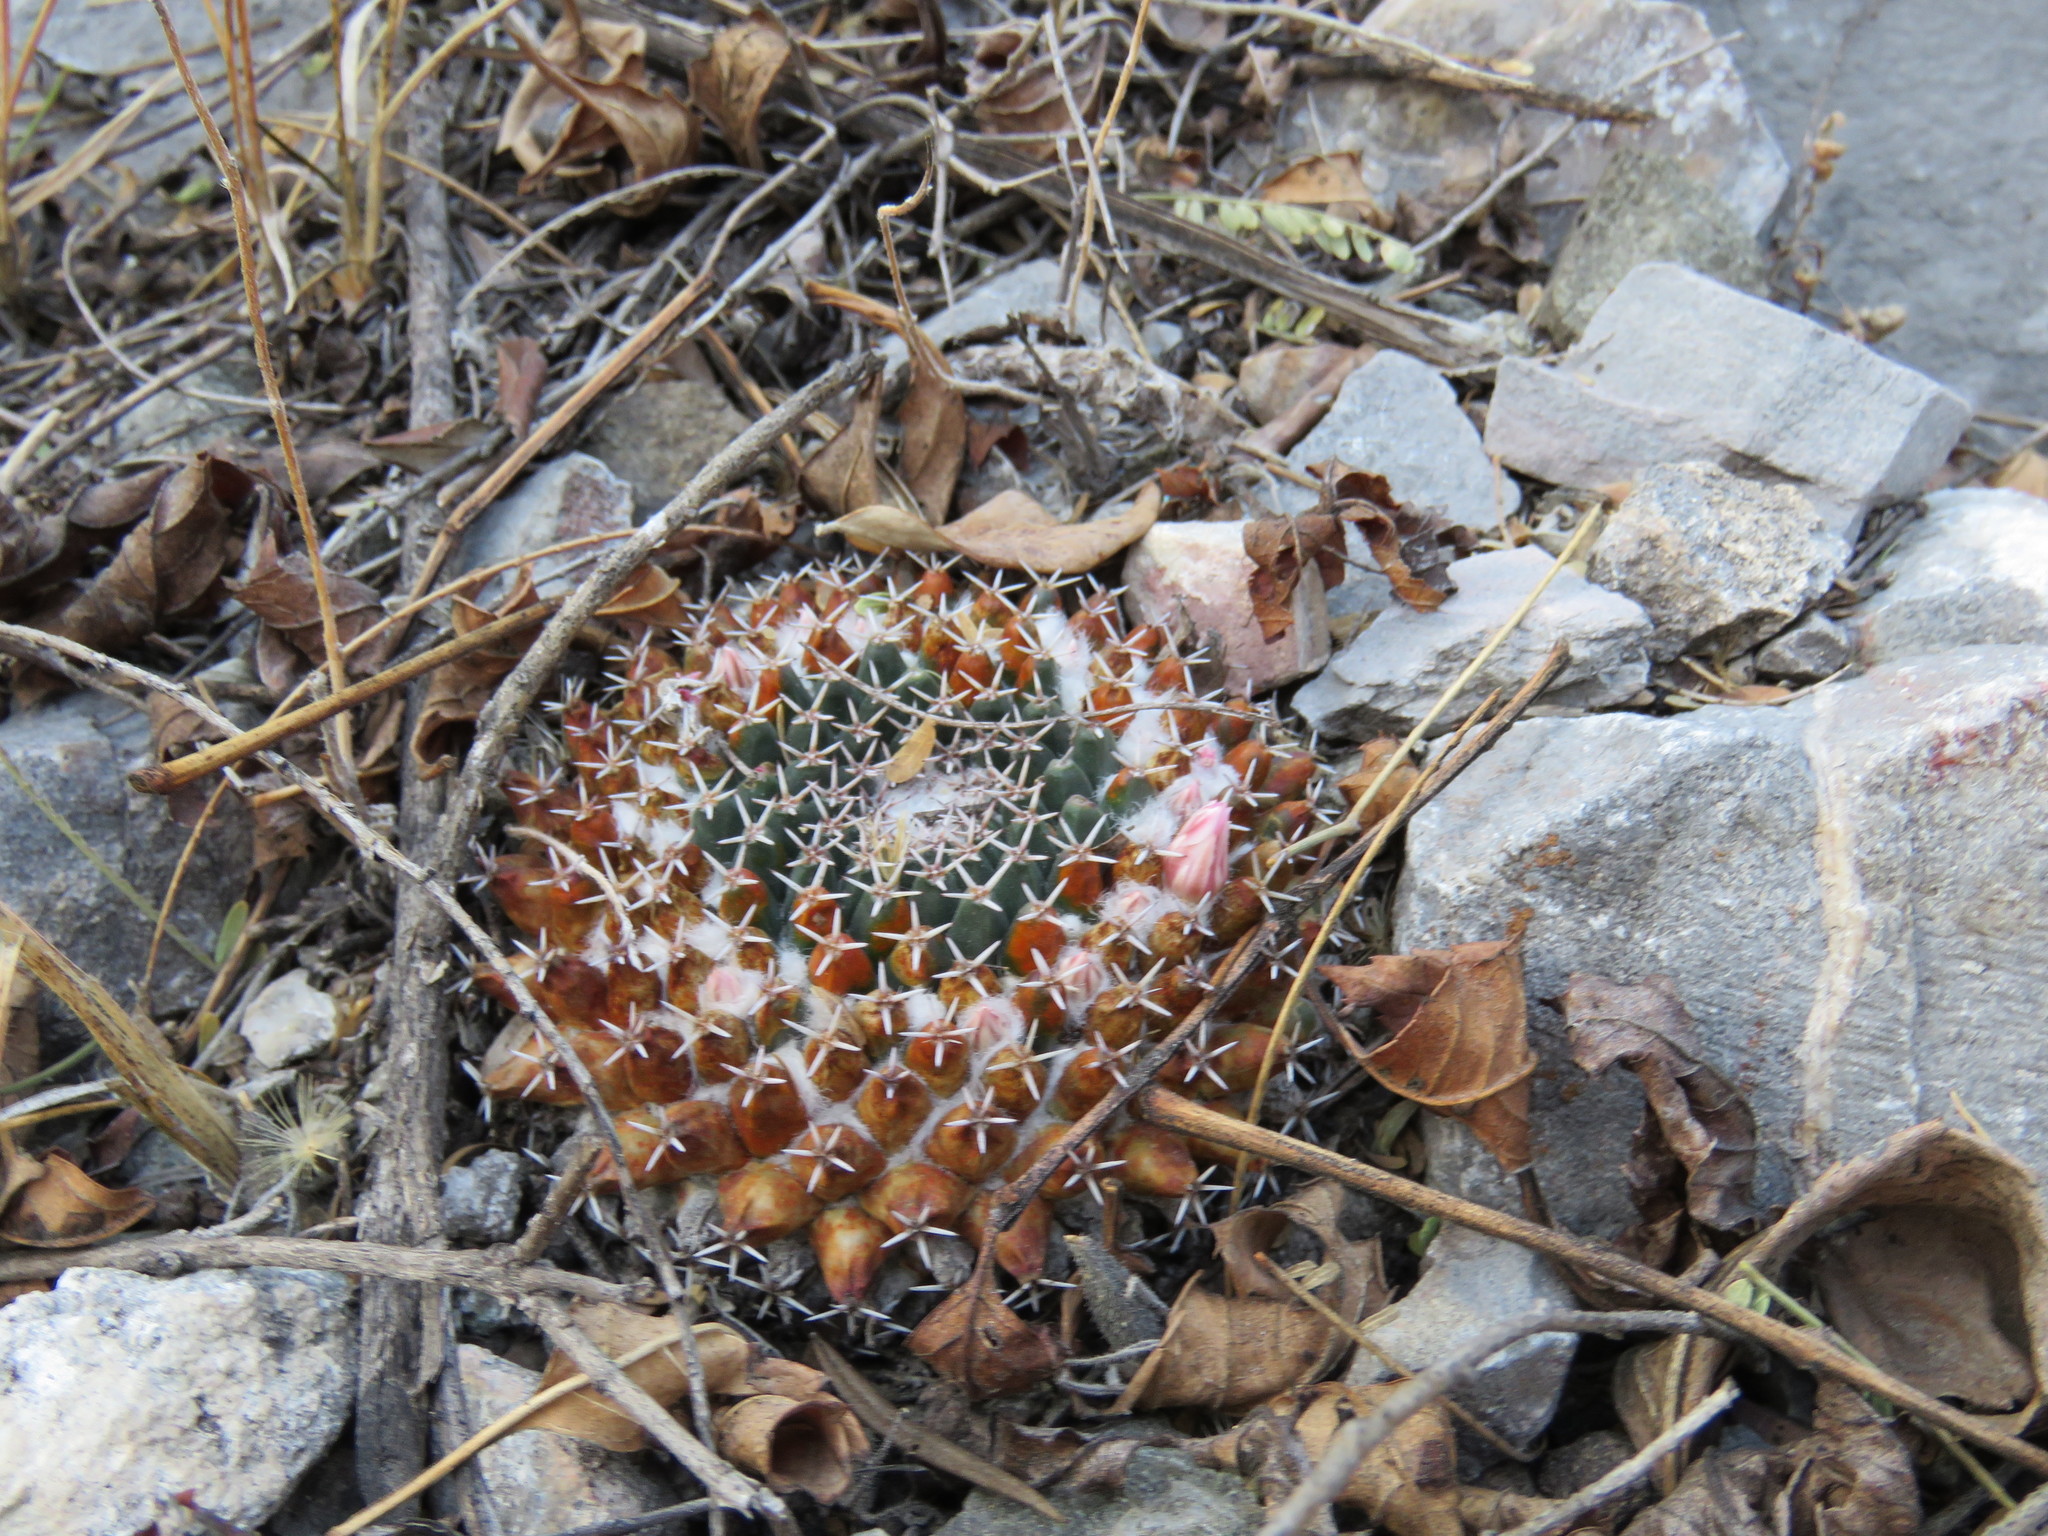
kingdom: Plantae
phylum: Tracheophyta
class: Magnoliopsida
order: Caryophyllales
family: Cactaceae
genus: Mammillaria
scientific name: Mammillaria
